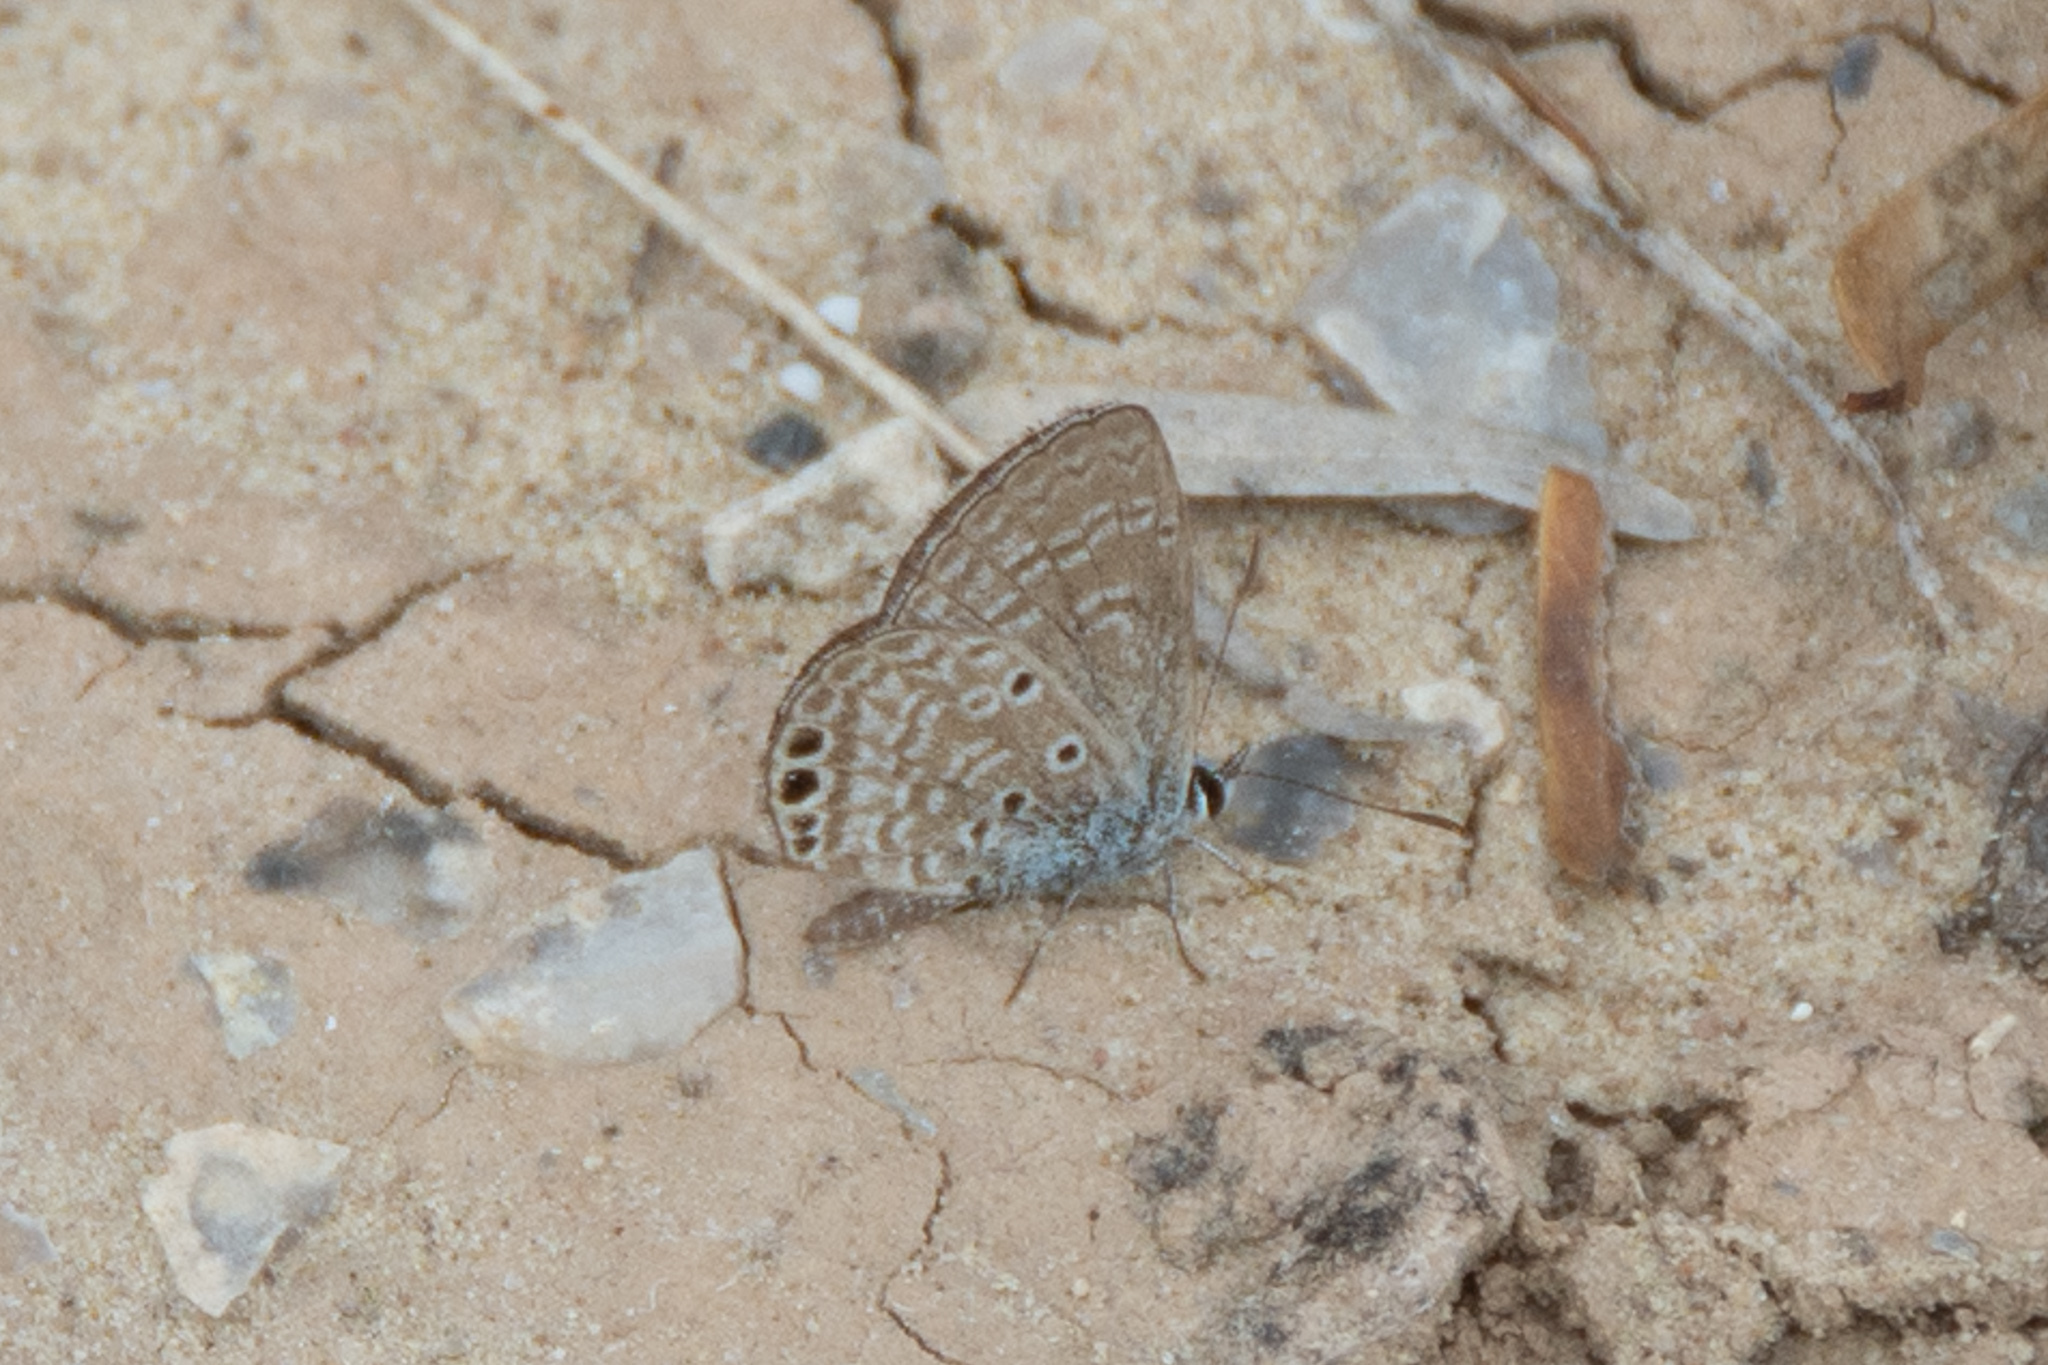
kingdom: Animalia
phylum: Arthropoda
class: Insecta
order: Lepidoptera
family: Lycaenidae
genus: Hemiargus
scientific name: Hemiargus ceraunus
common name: Ceraunus blue
